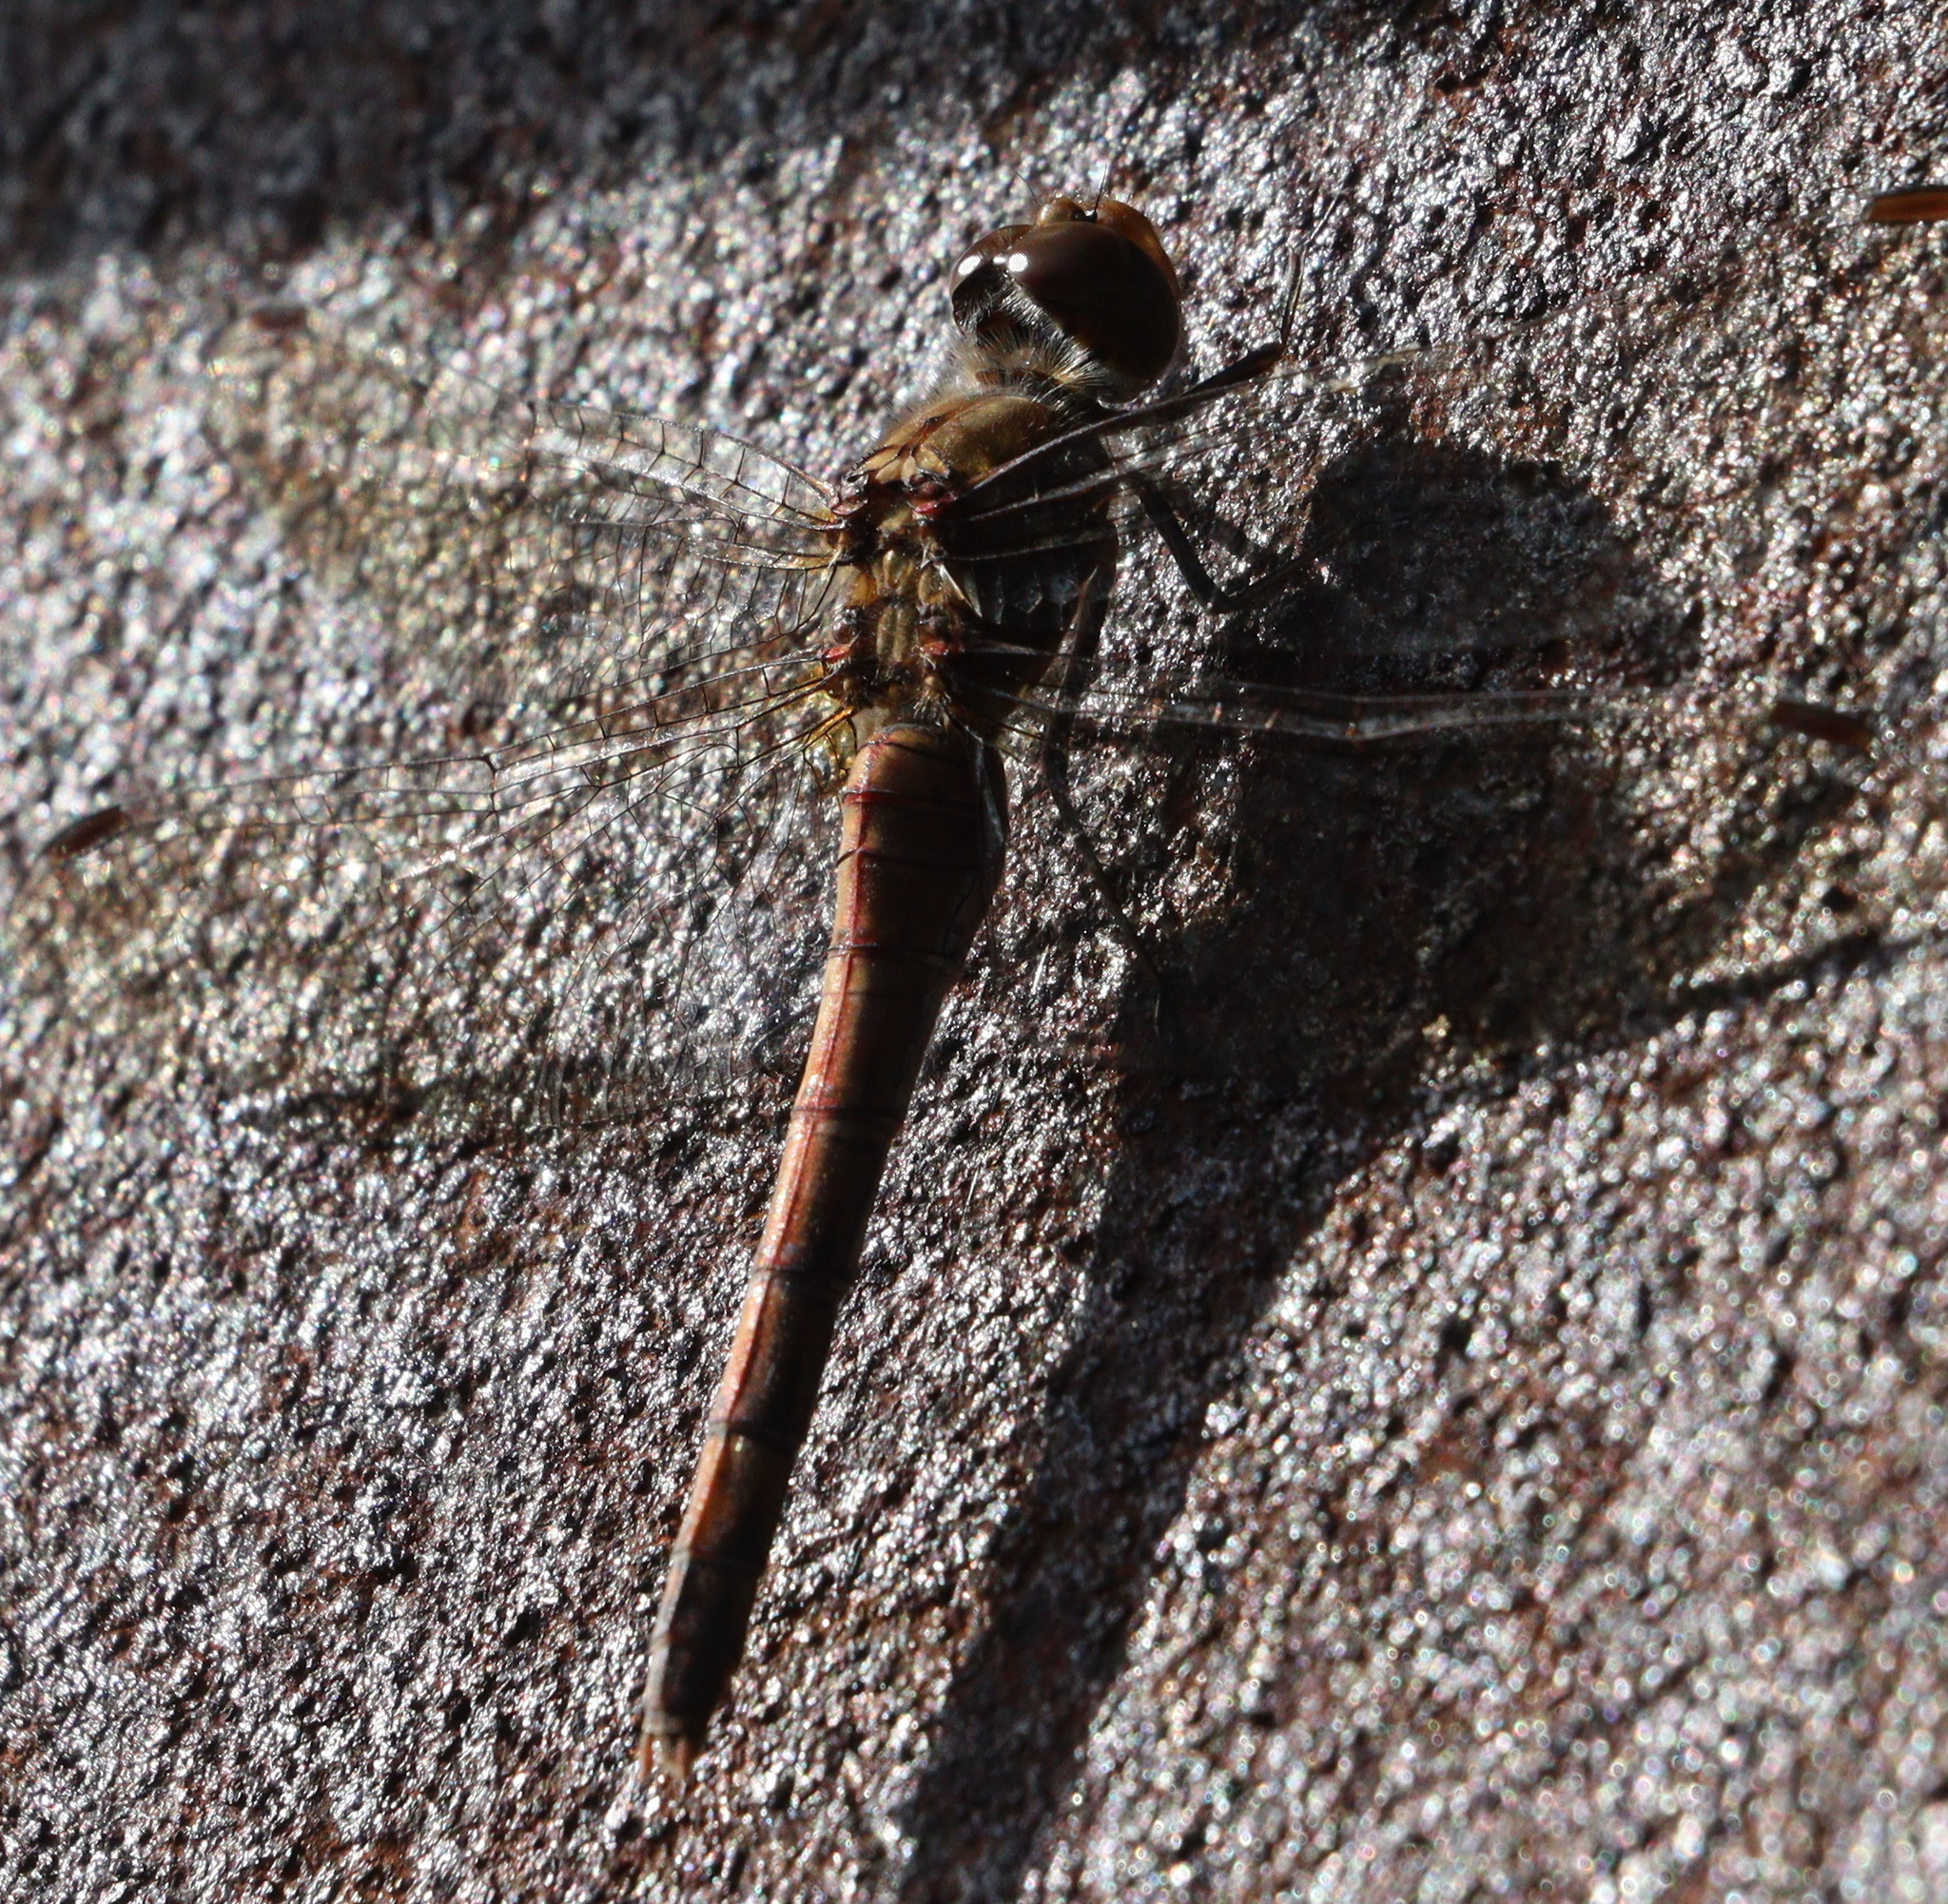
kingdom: Animalia
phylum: Arthropoda
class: Insecta
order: Odonata
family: Libellulidae
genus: Sympetrum
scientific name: Sympetrum striolatum
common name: Common darter
